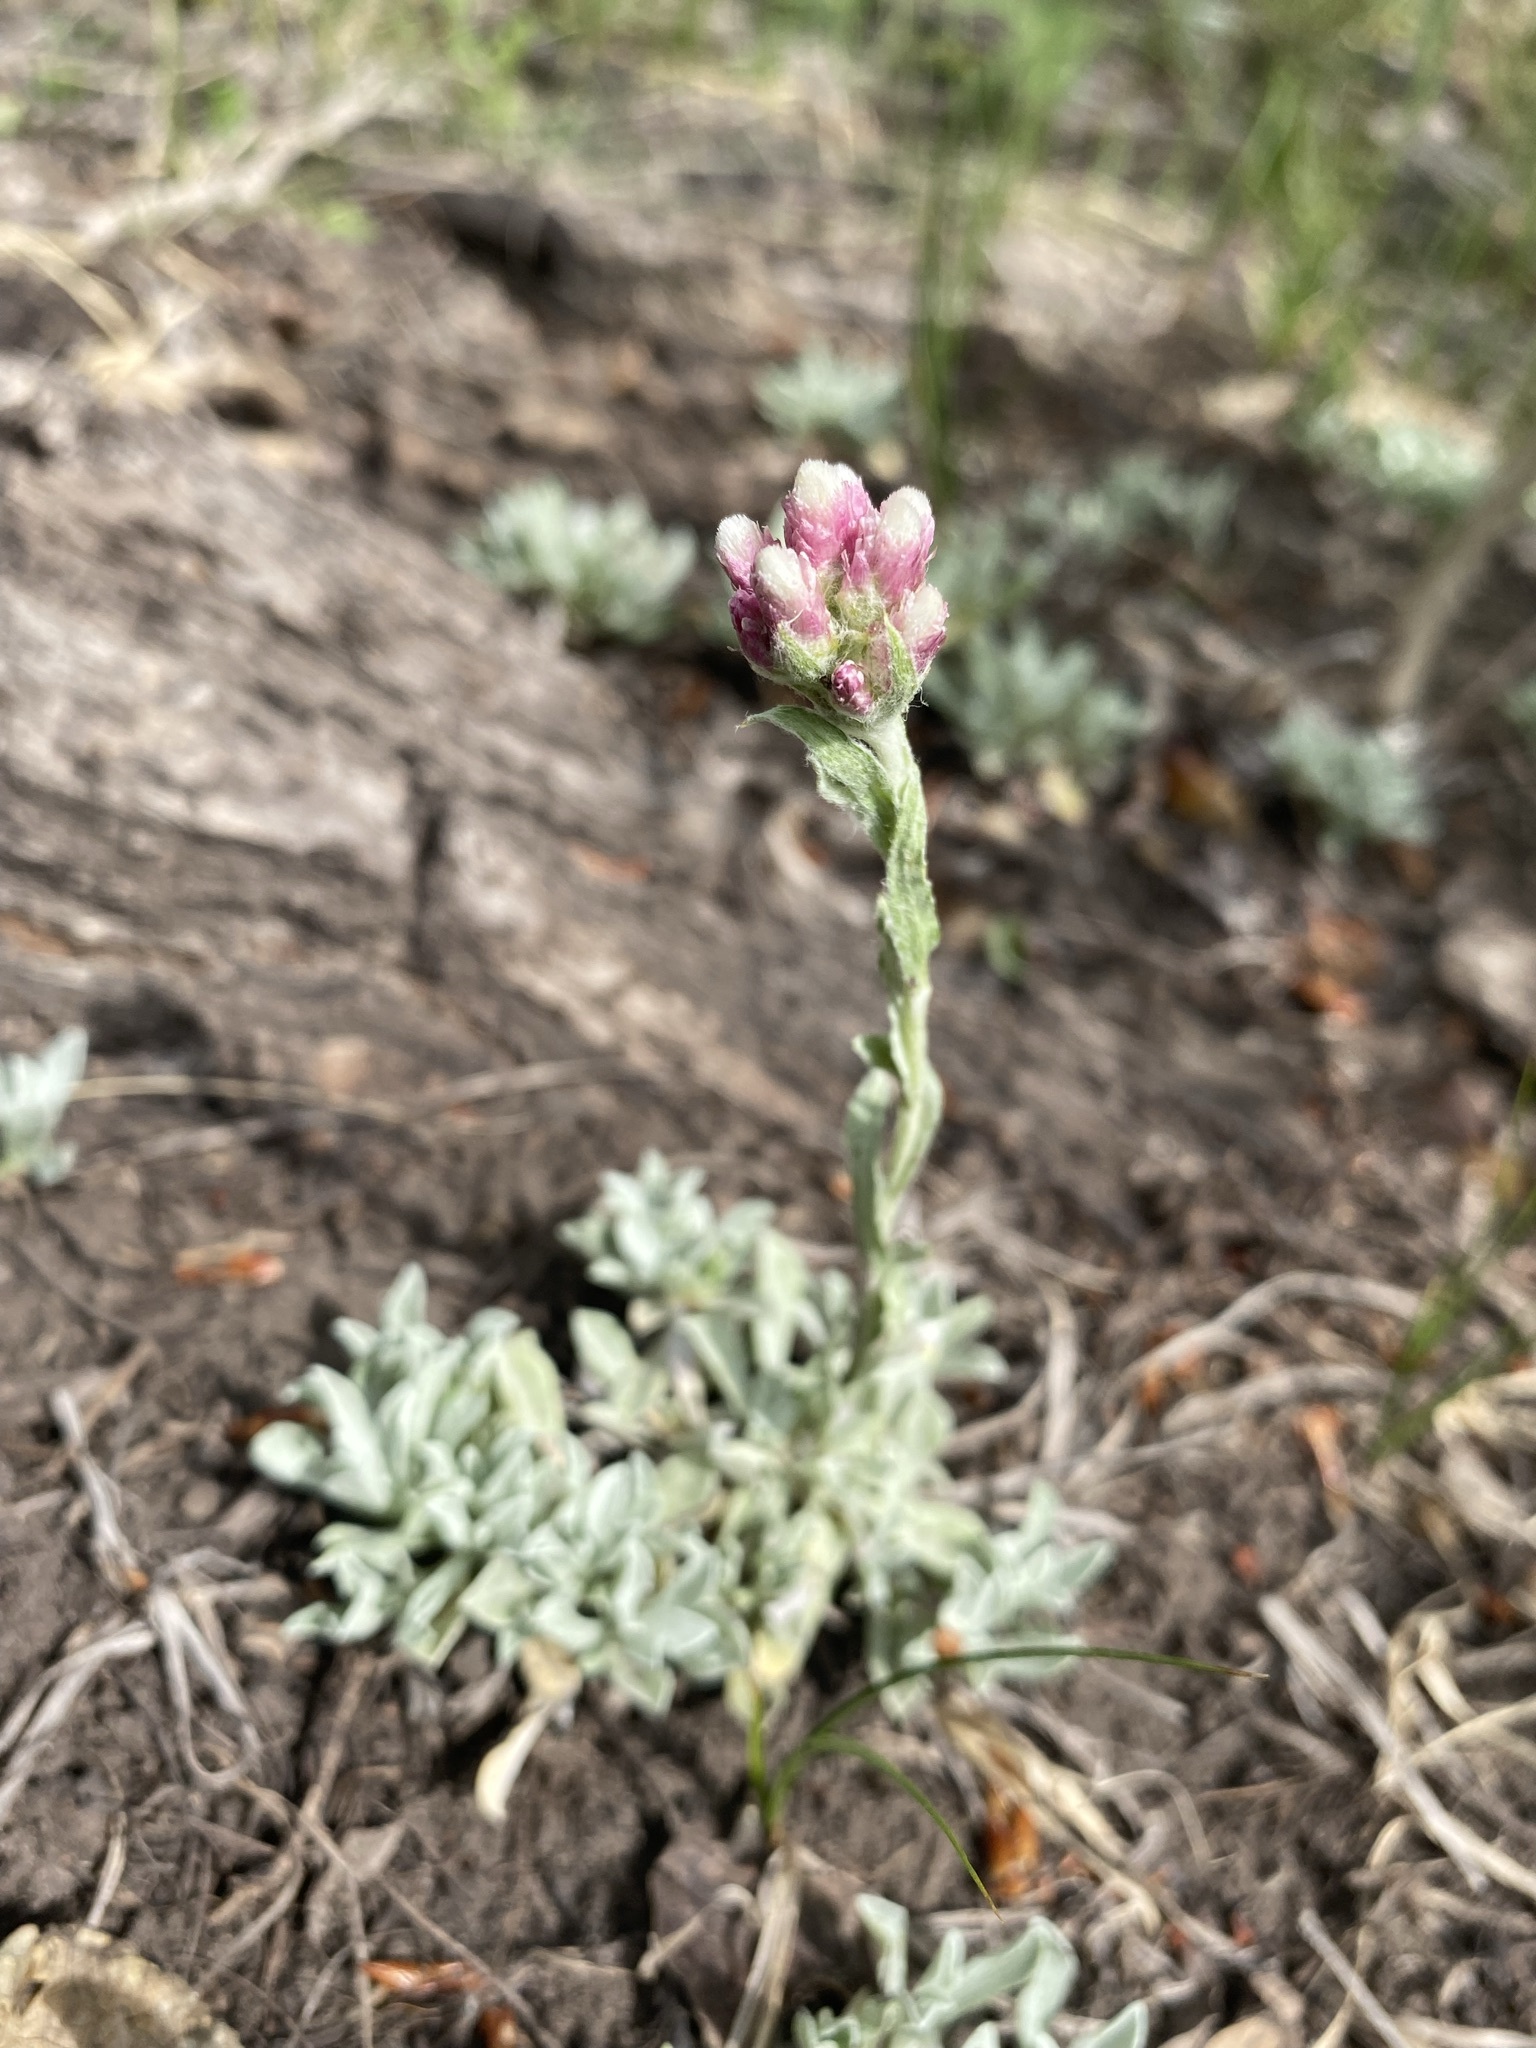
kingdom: Plantae
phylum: Tracheophyta
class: Magnoliopsida
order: Asterales
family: Asteraceae
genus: Antennaria
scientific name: Antennaria rosea
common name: Rosy pussytoes
